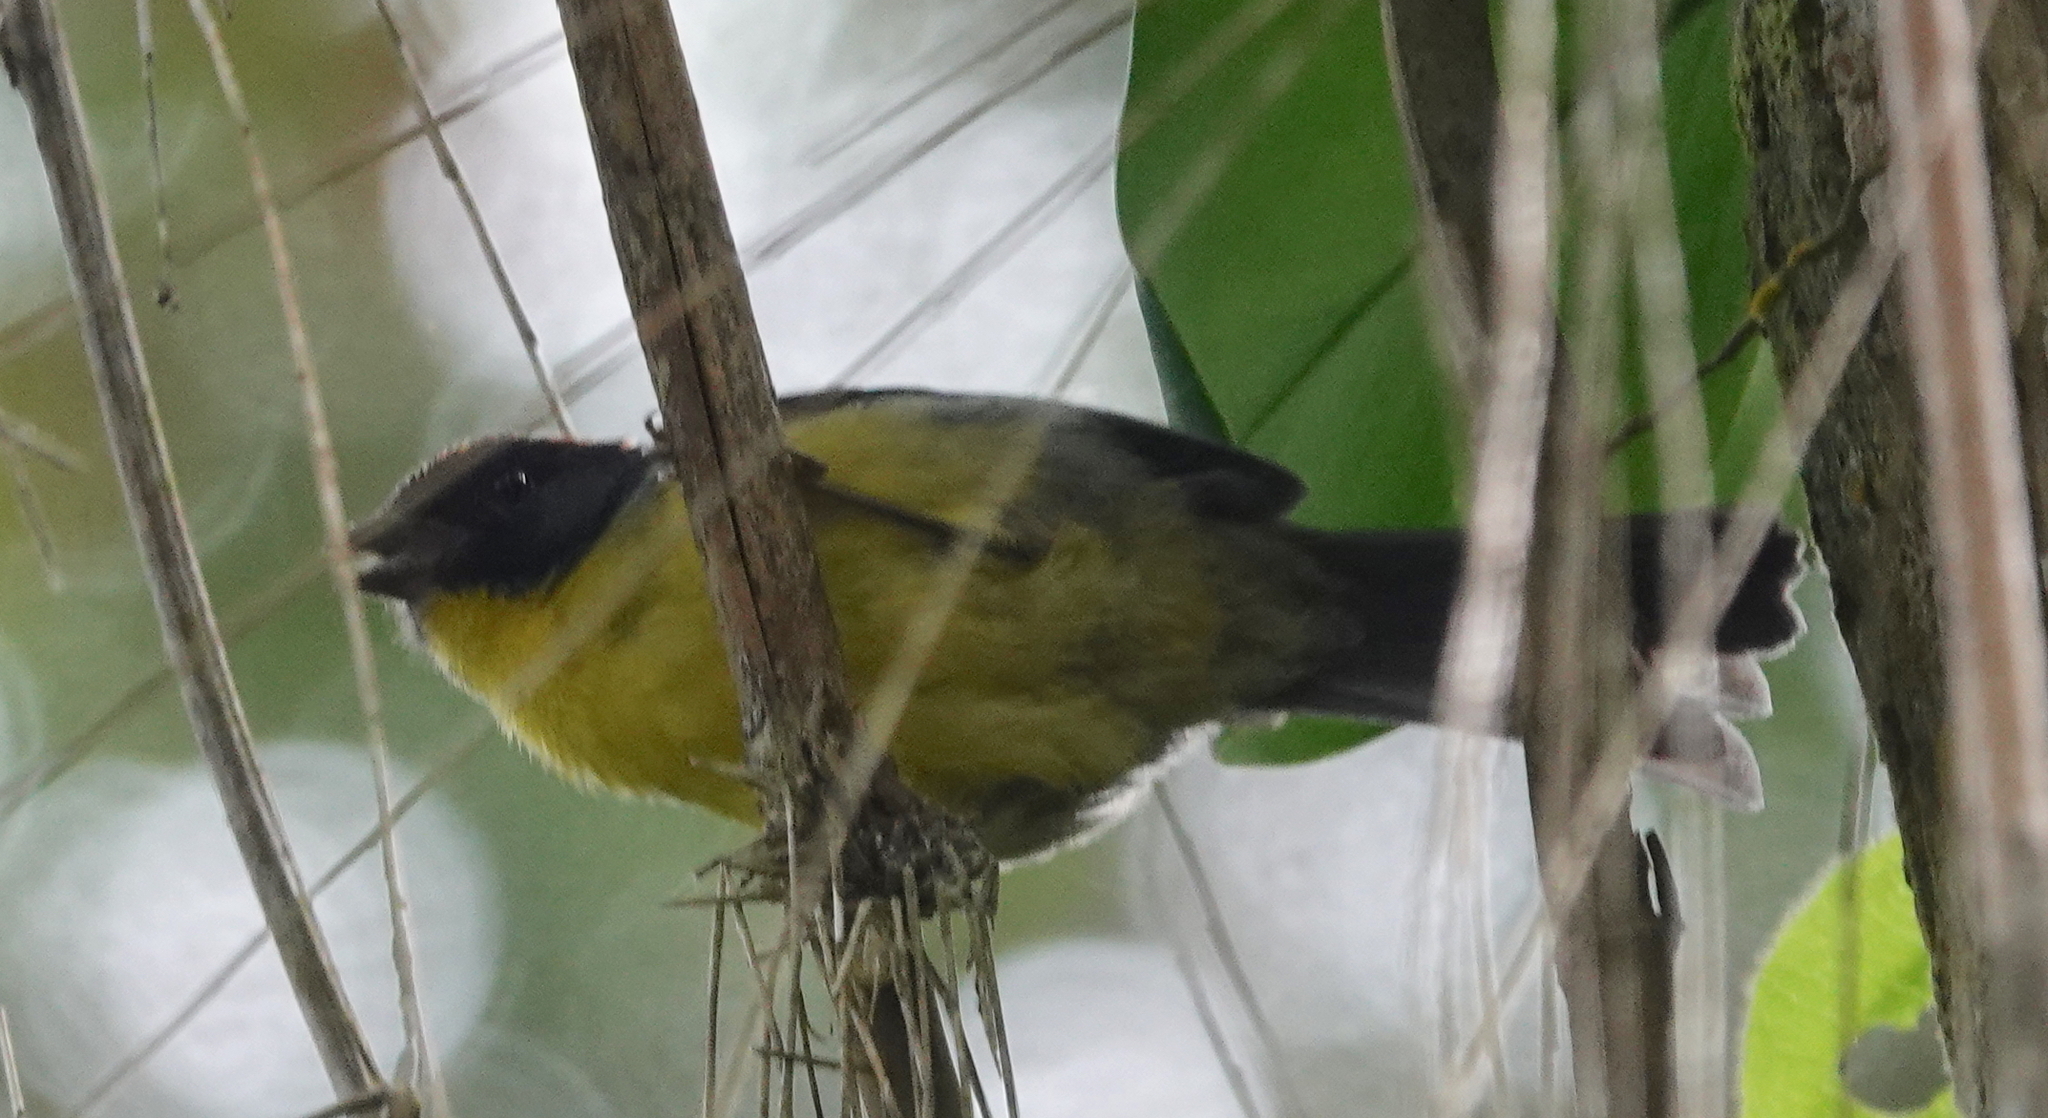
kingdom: Animalia
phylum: Chordata
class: Aves
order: Passeriformes
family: Passerellidae
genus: Atlapetes
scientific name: Atlapetes nigrifrons
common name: Black-fronted brushfinch
